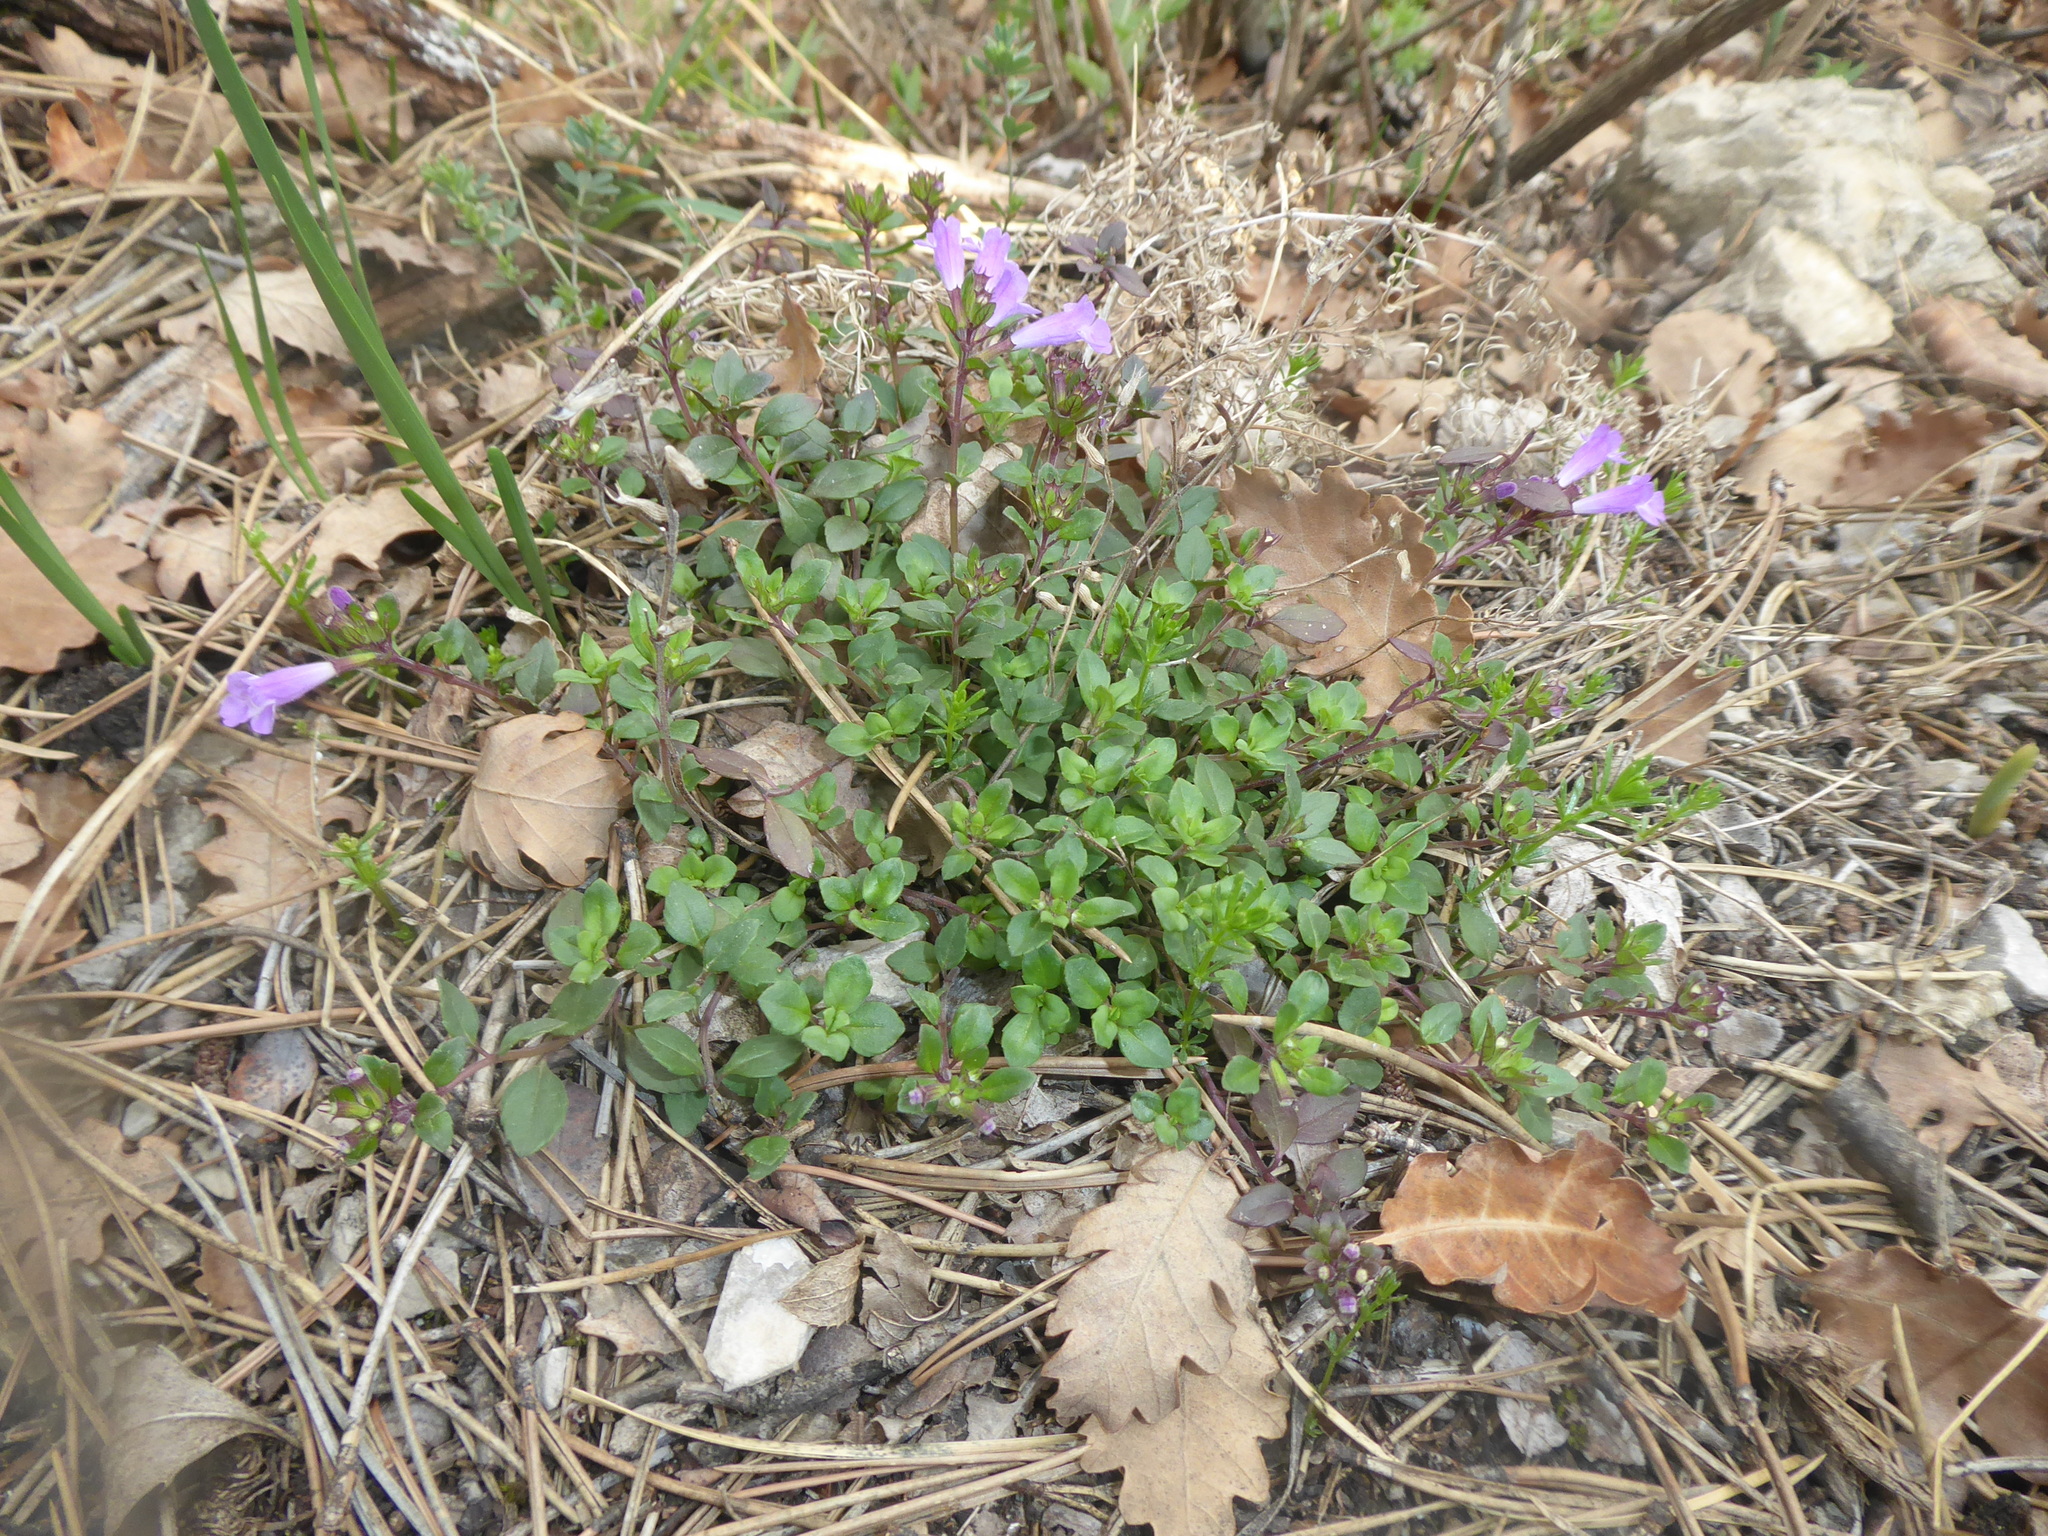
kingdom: Plantae
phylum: Tracheophyta
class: Magnoliopsida
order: Lamiales
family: Lamiaceae
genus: Clinopodium
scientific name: Clinopodium alpinum
